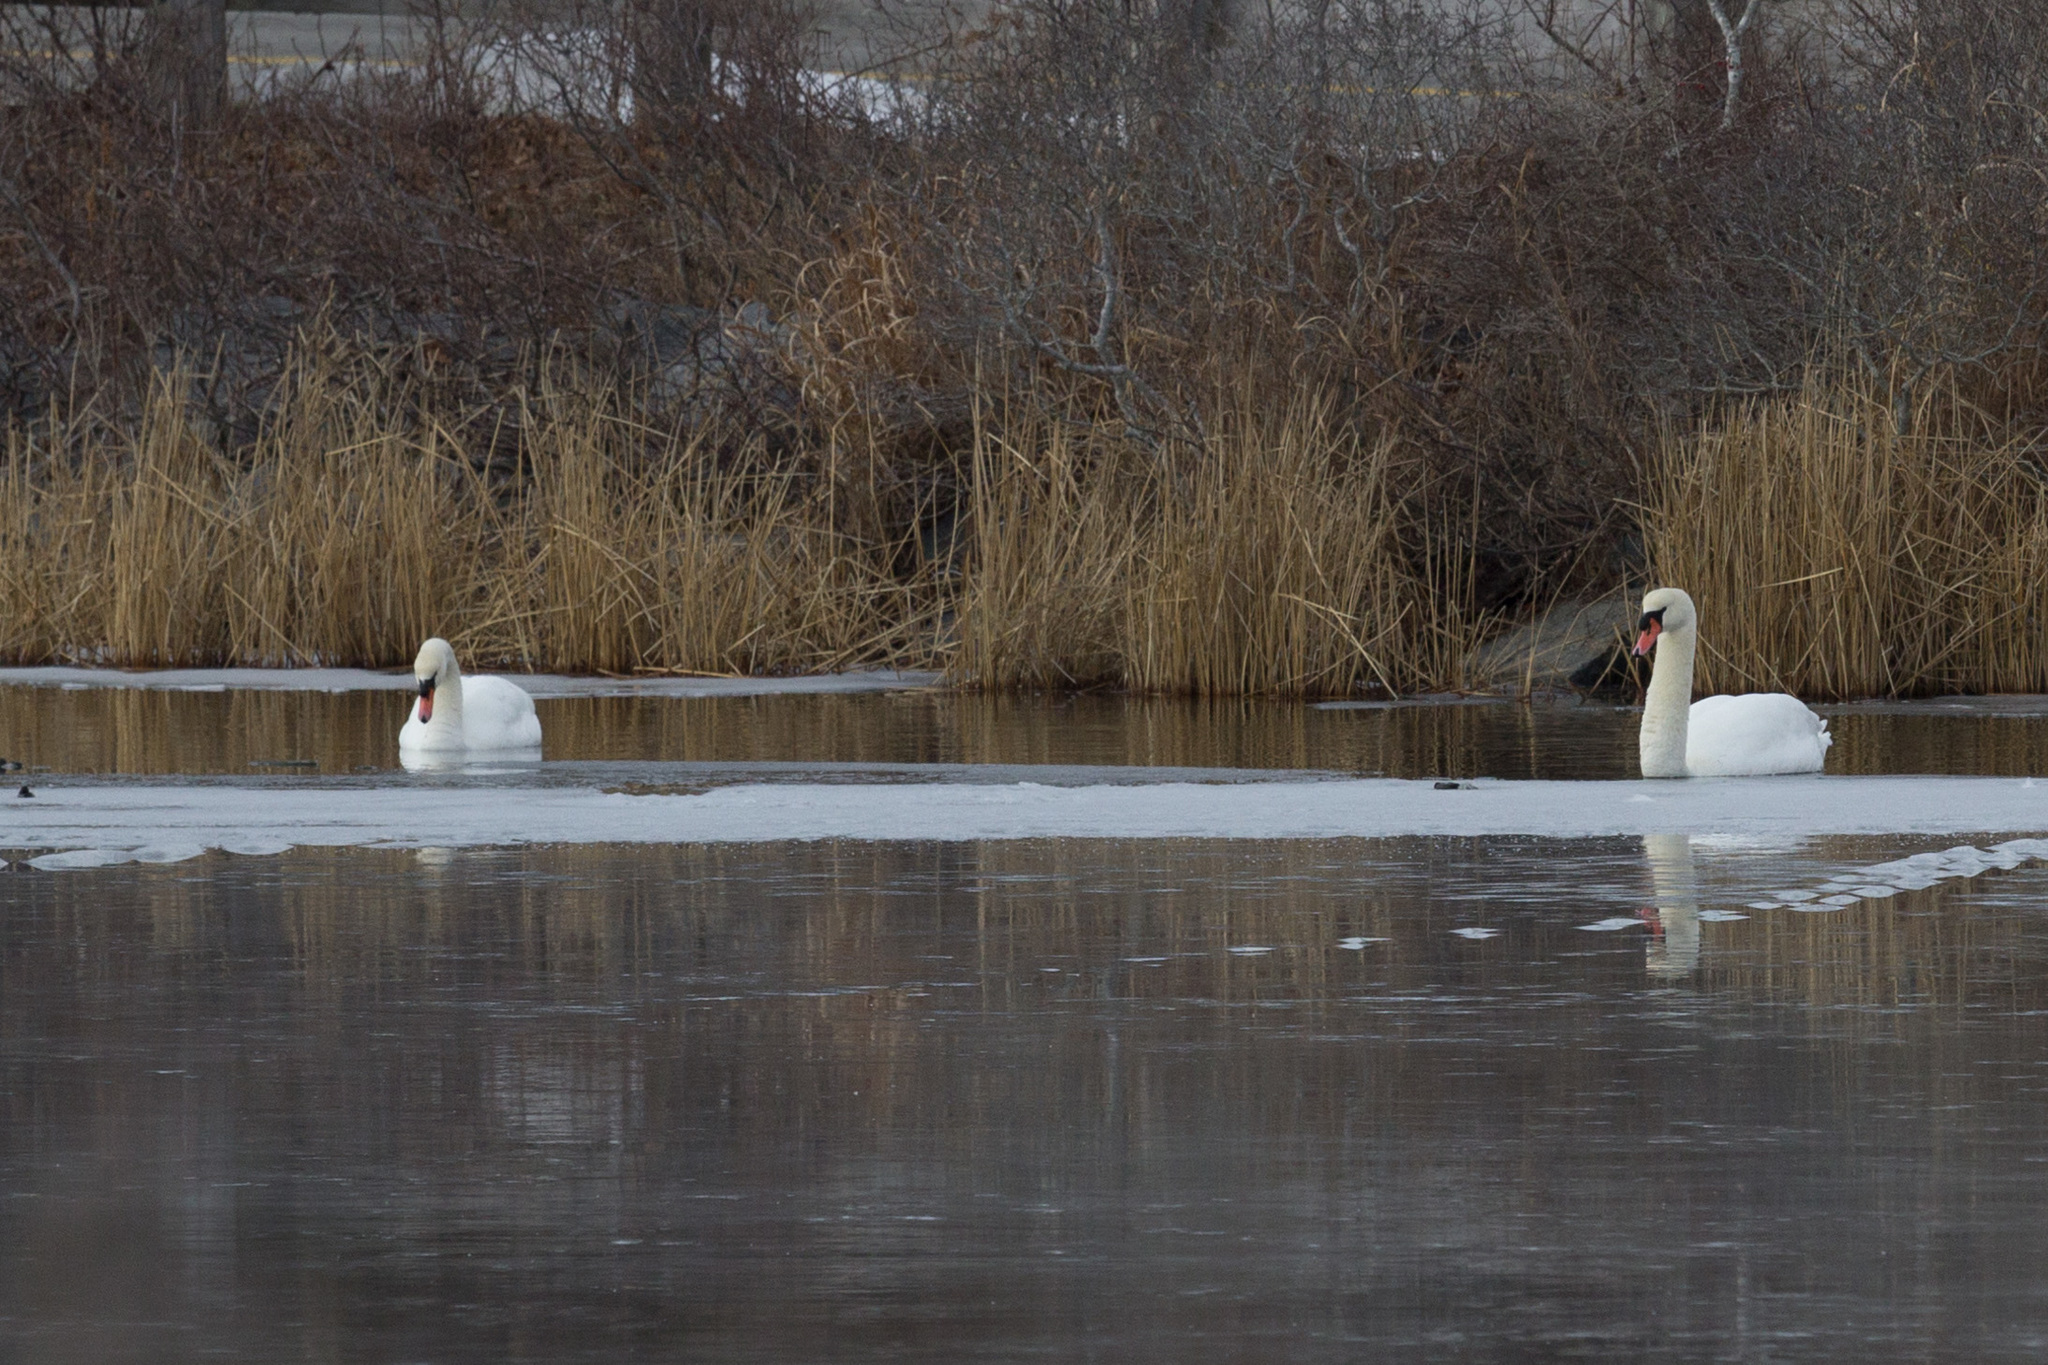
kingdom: Animalia
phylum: Chordata
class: Aves
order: Anseriformes
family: Anatidae
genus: Cygnus
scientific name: Cygnus olor
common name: Mute swan
